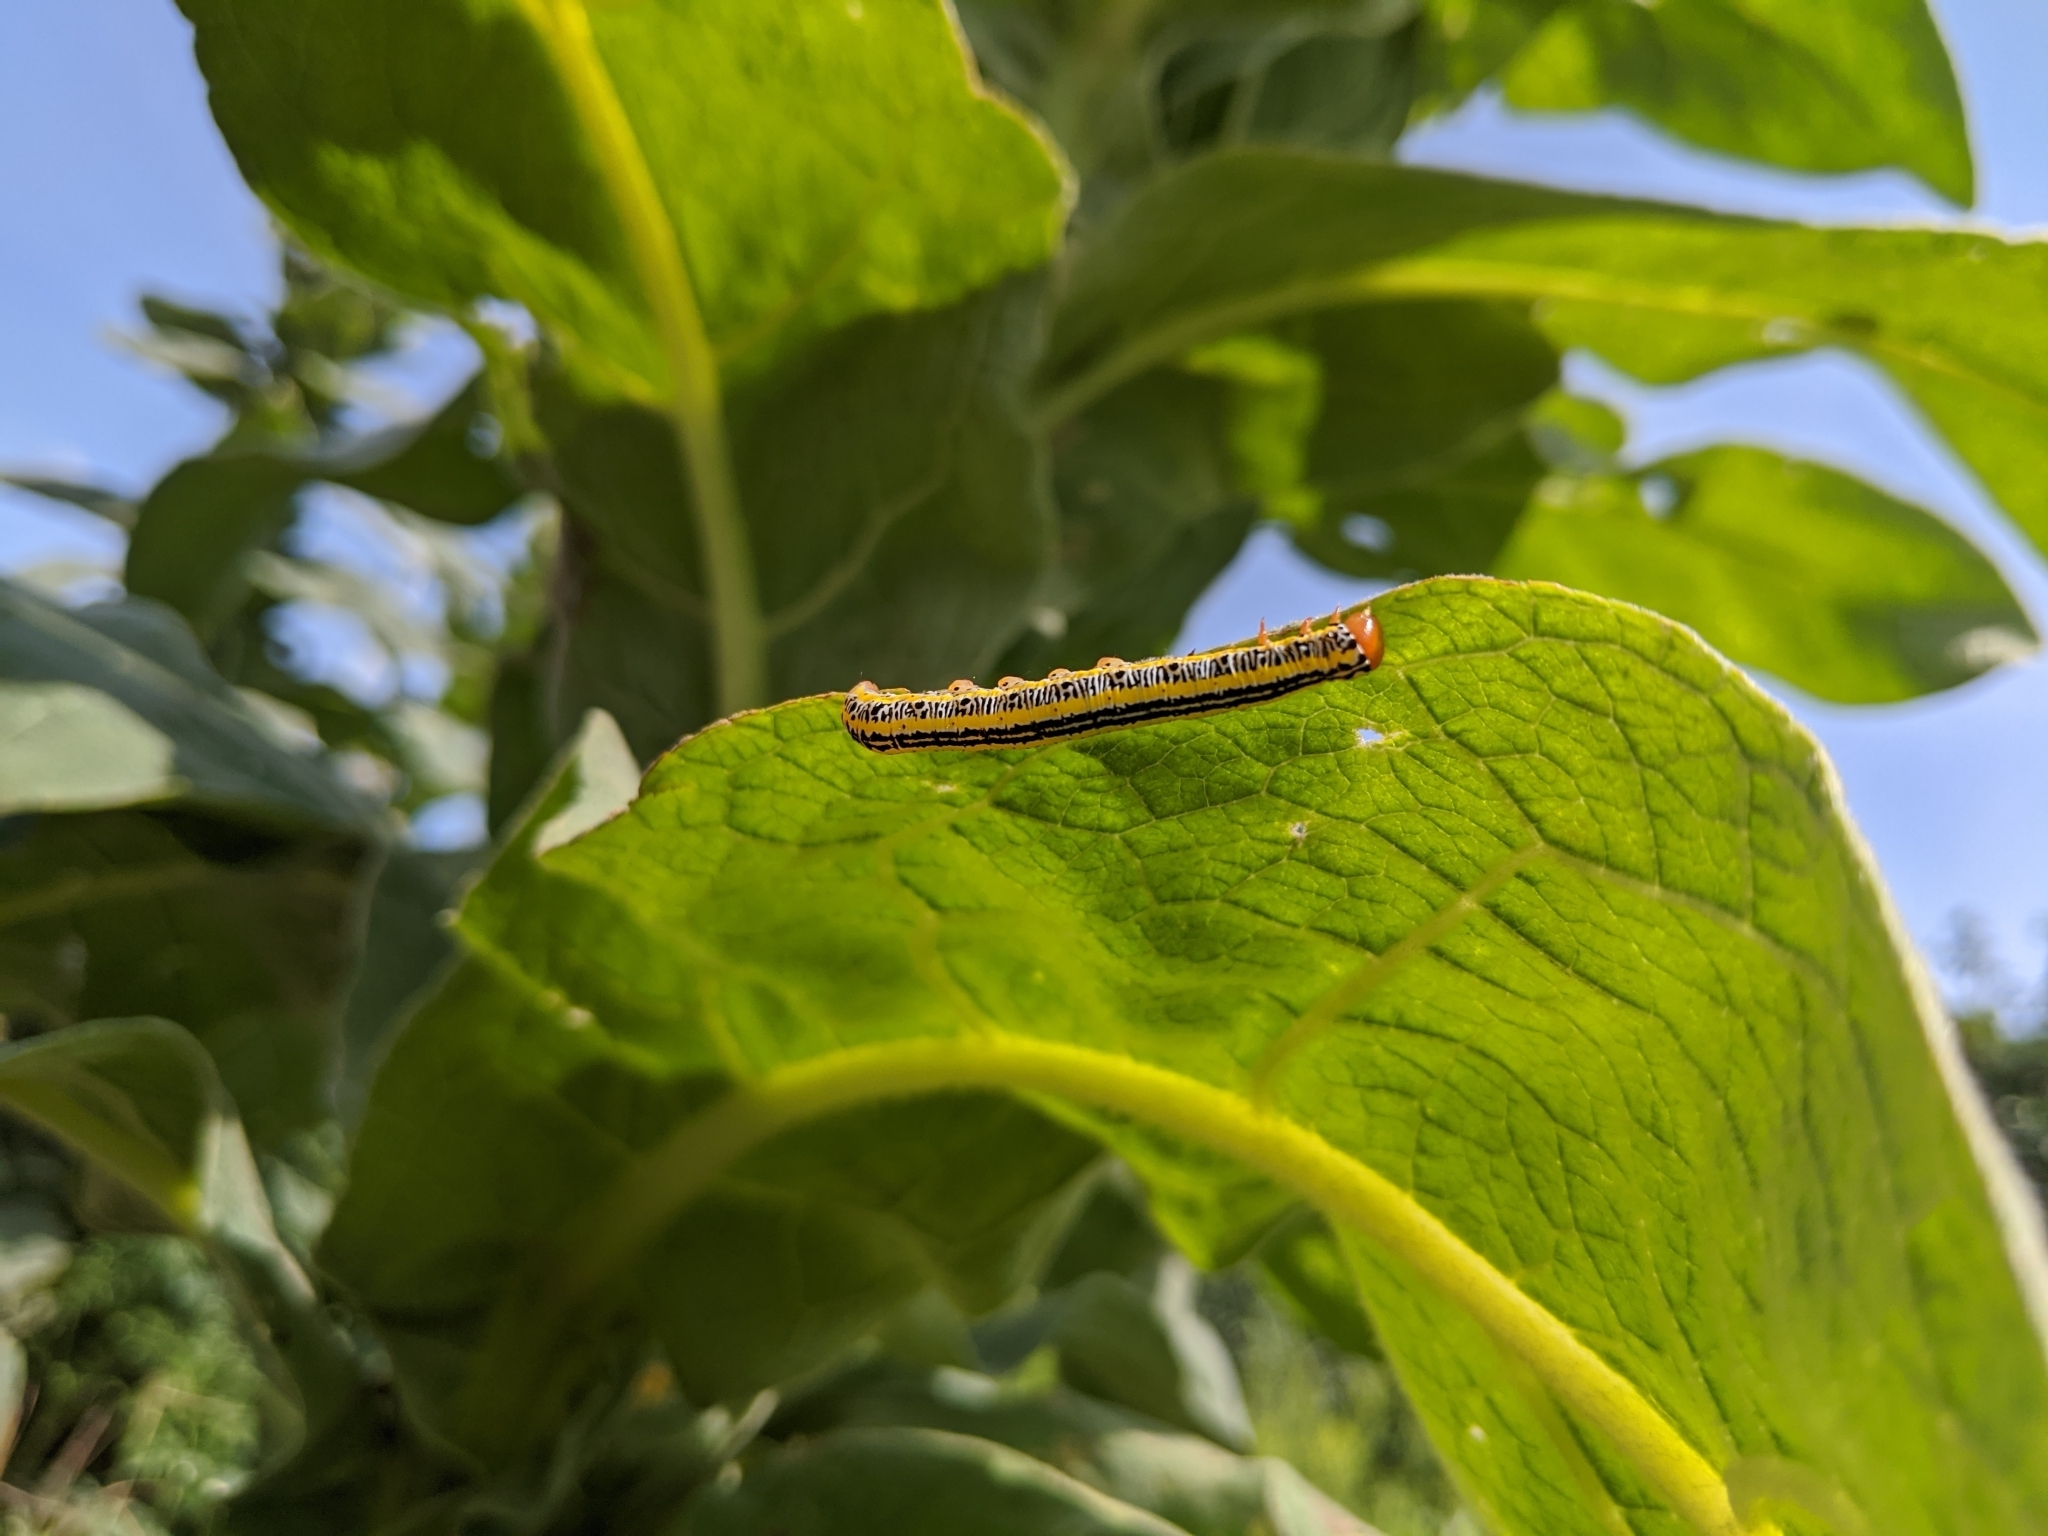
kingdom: Animalia
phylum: Arthropoda
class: Insecta
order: Lepidoptera
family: Noctuidae
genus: Melanchra
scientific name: Melanchra picta
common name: Zebra caterpillar
